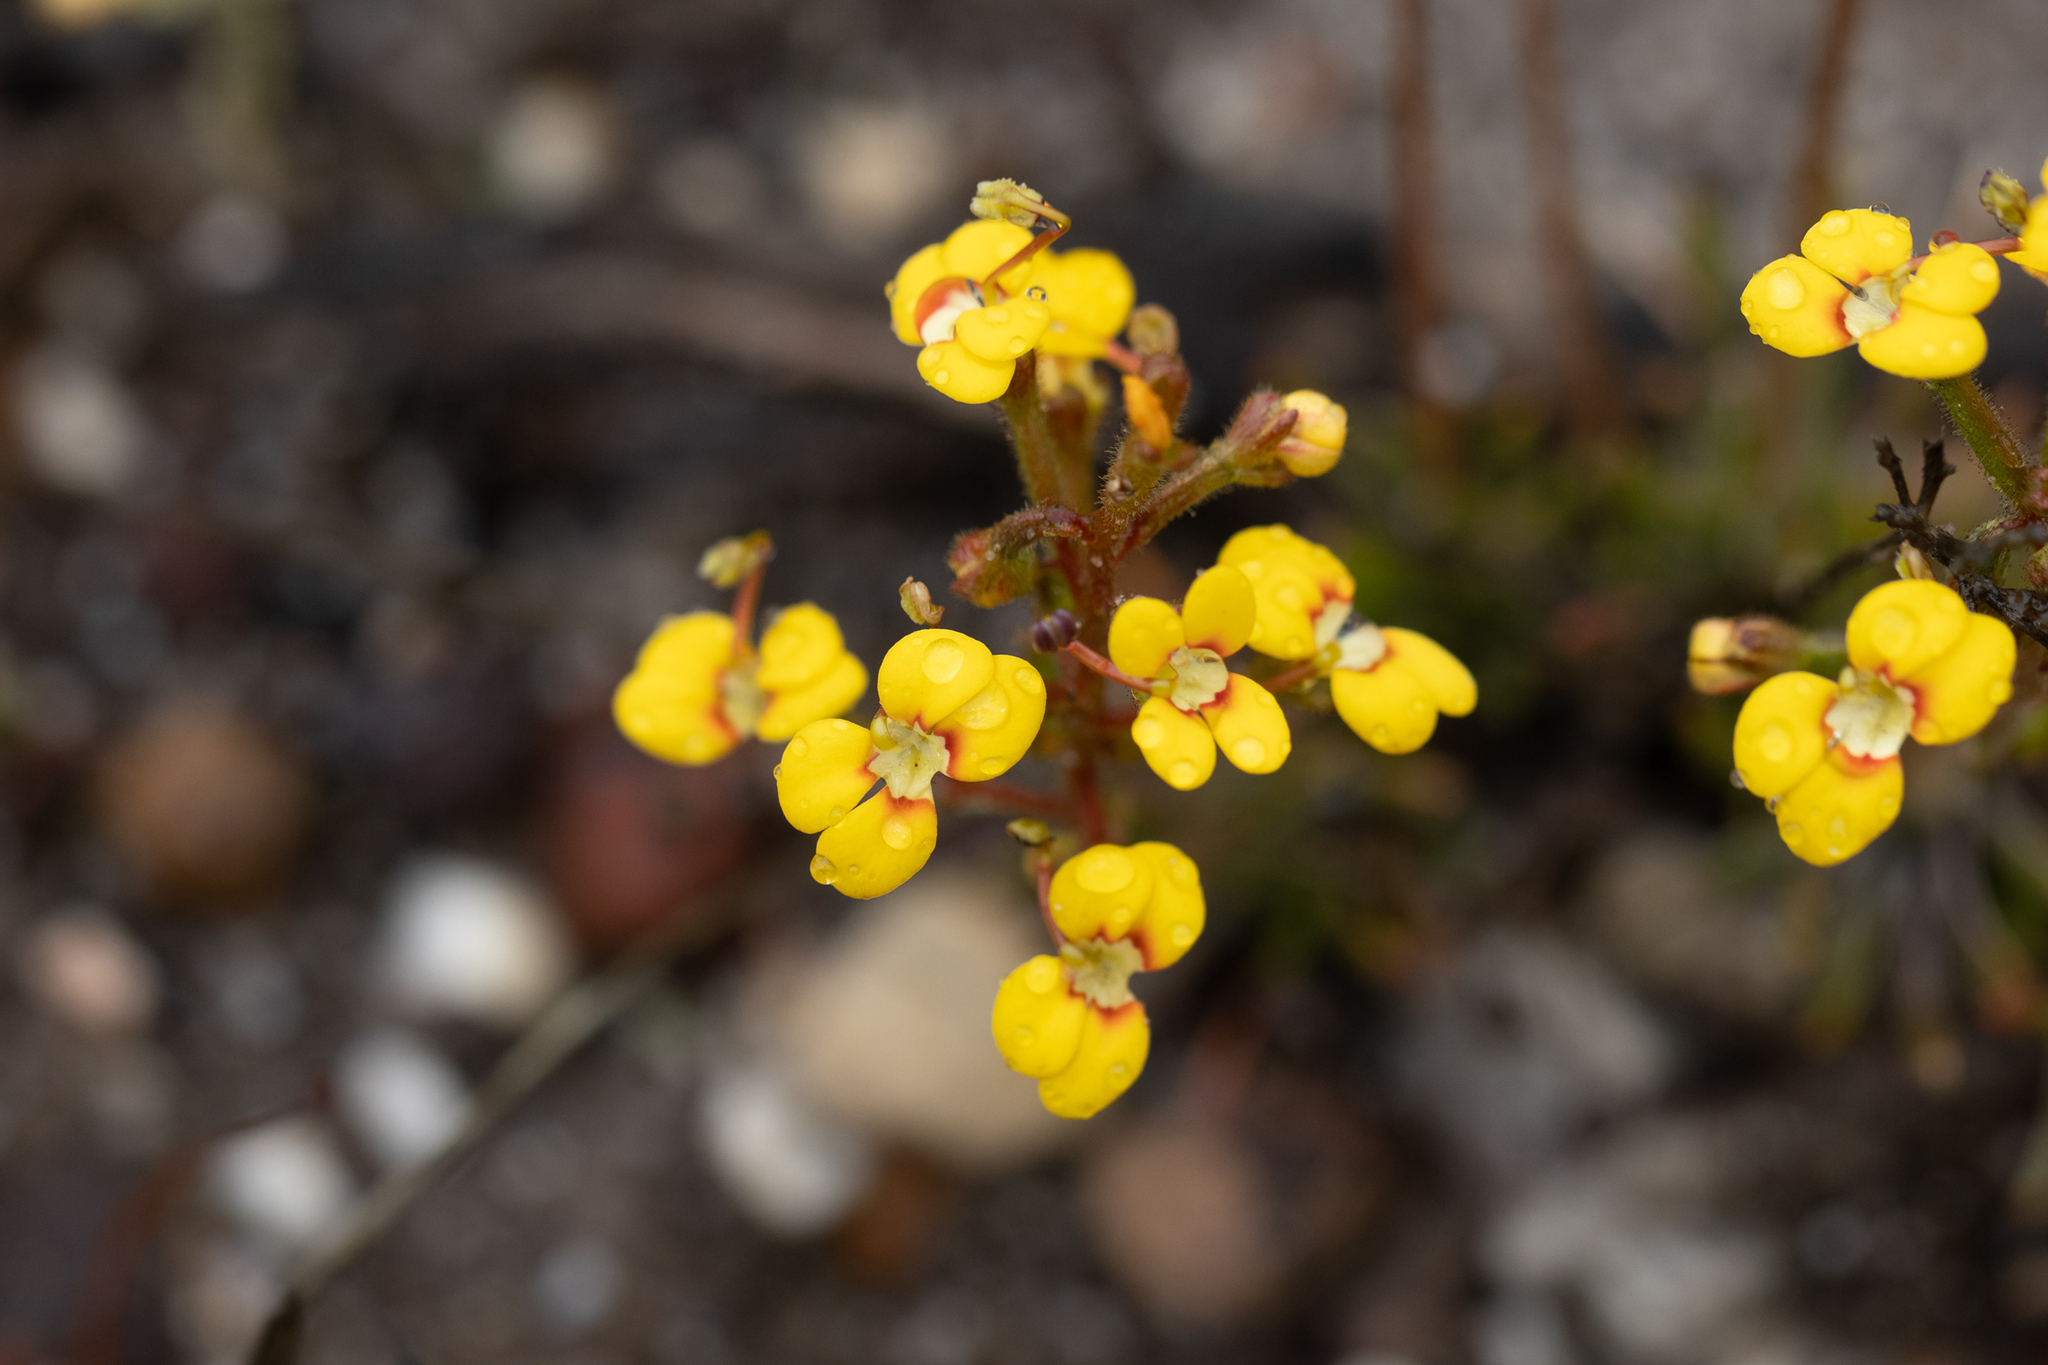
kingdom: Plantae
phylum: Tracheophyta
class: Magnoliopsida
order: Asterales
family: Stylidiaceae
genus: Stylidium
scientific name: Stylidium dichotomum
